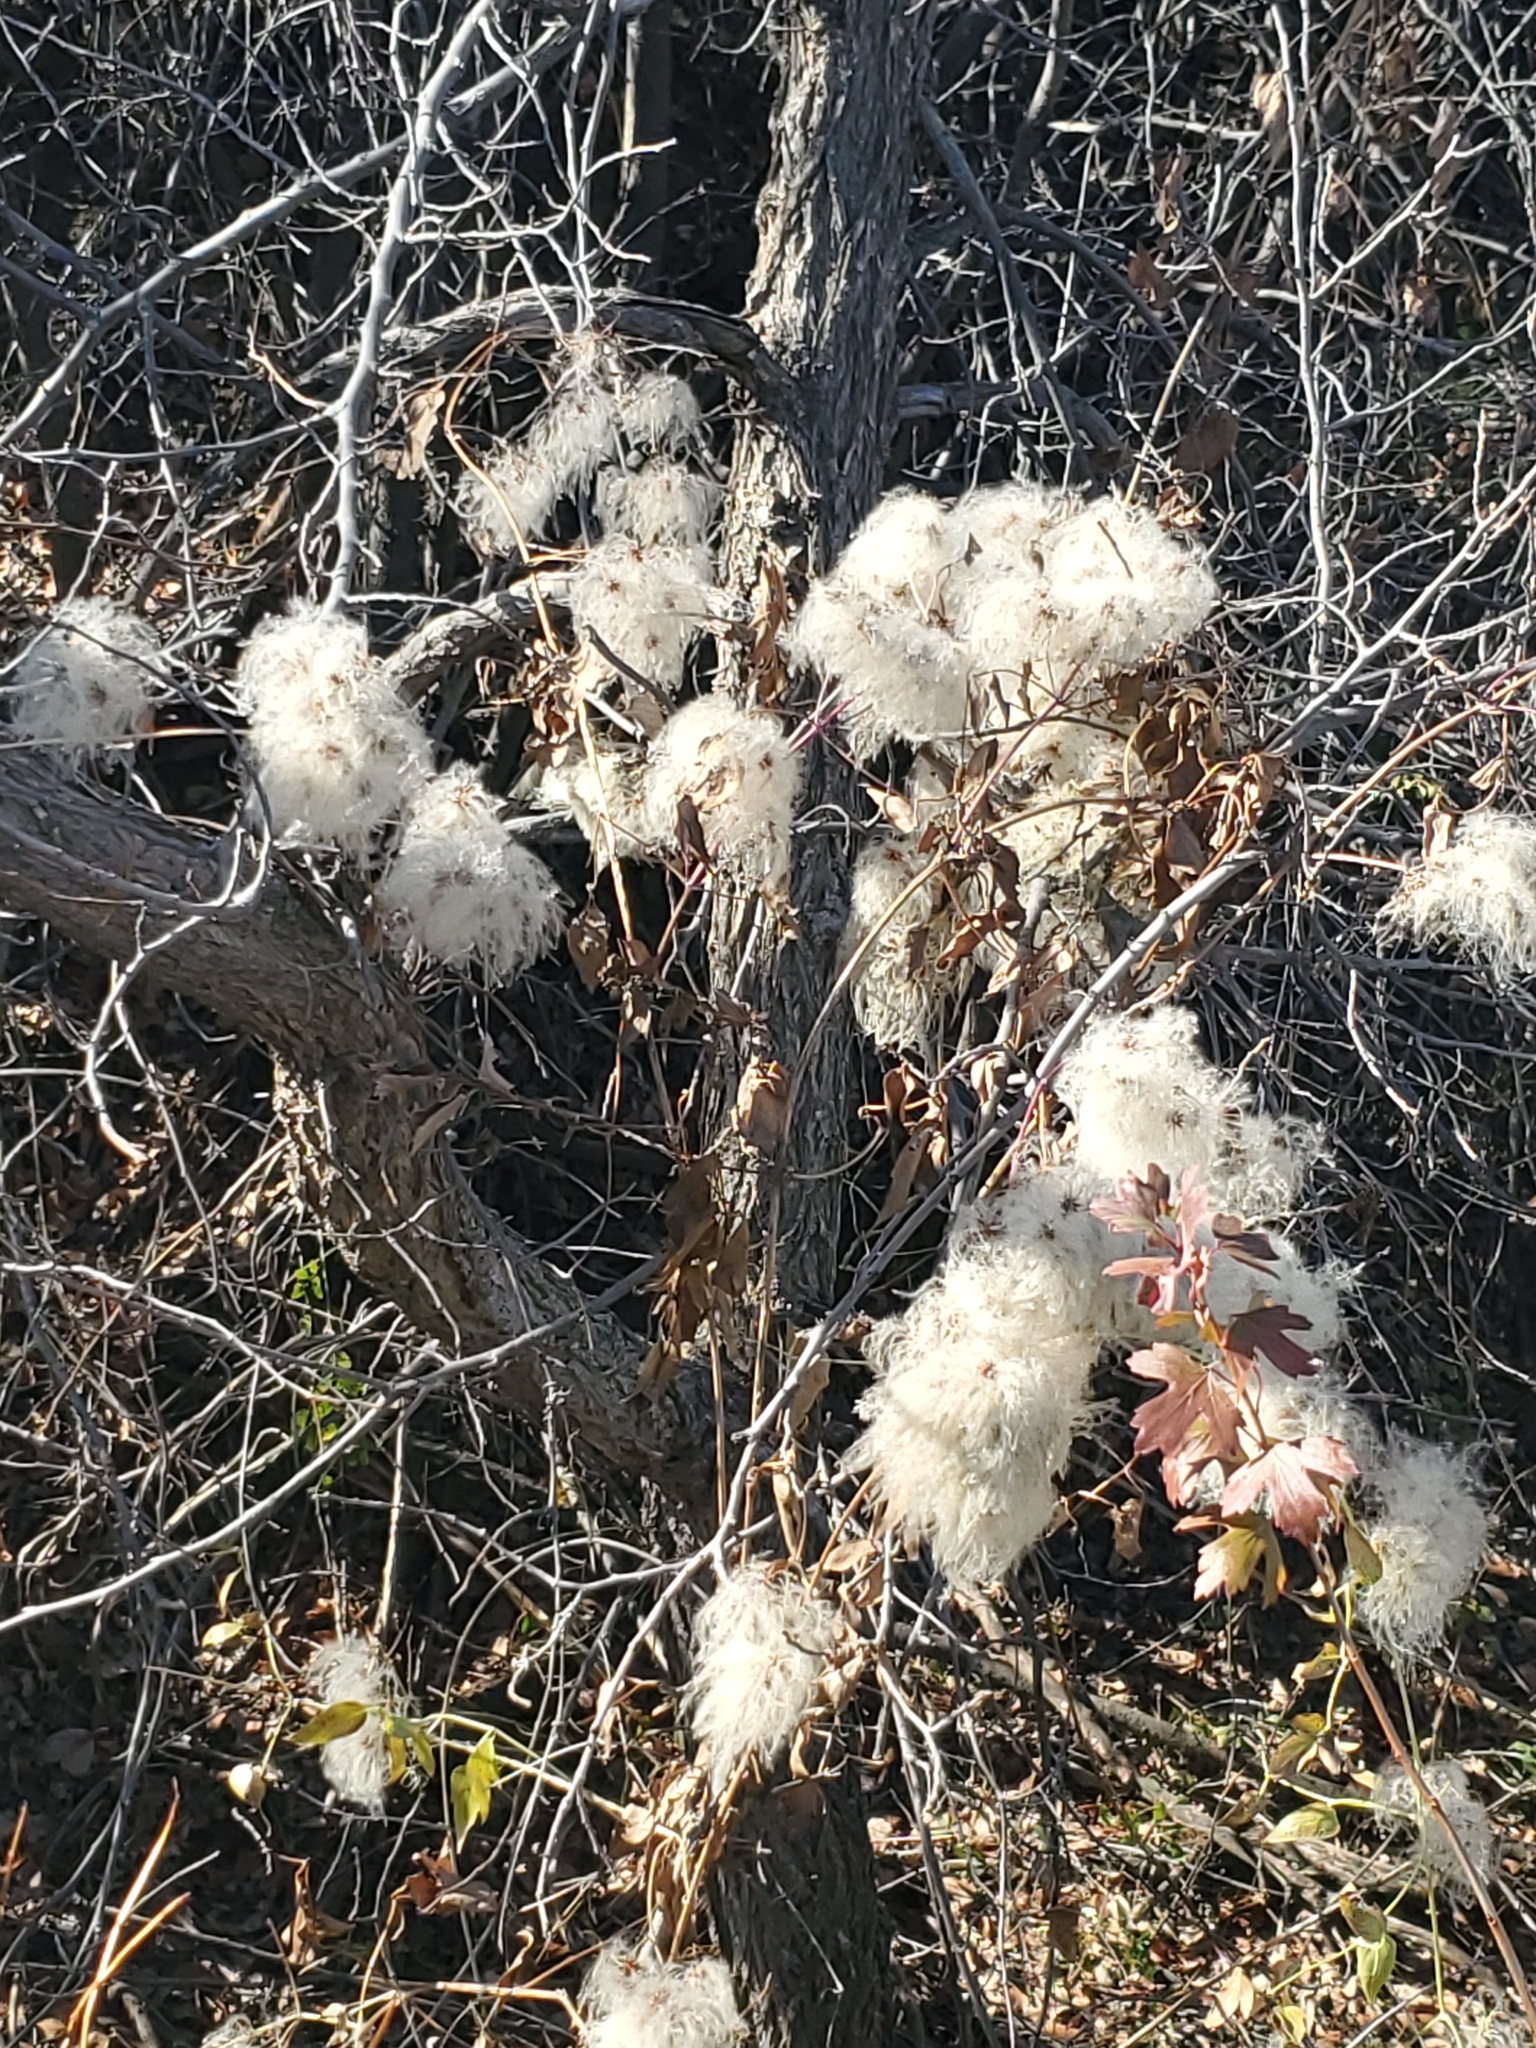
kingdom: Plantae
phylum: Tracheophyta
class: Magnoliopsida
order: Ranunculales
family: Ranunculaceae
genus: Clematis
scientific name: Clematis ligusticifolia
